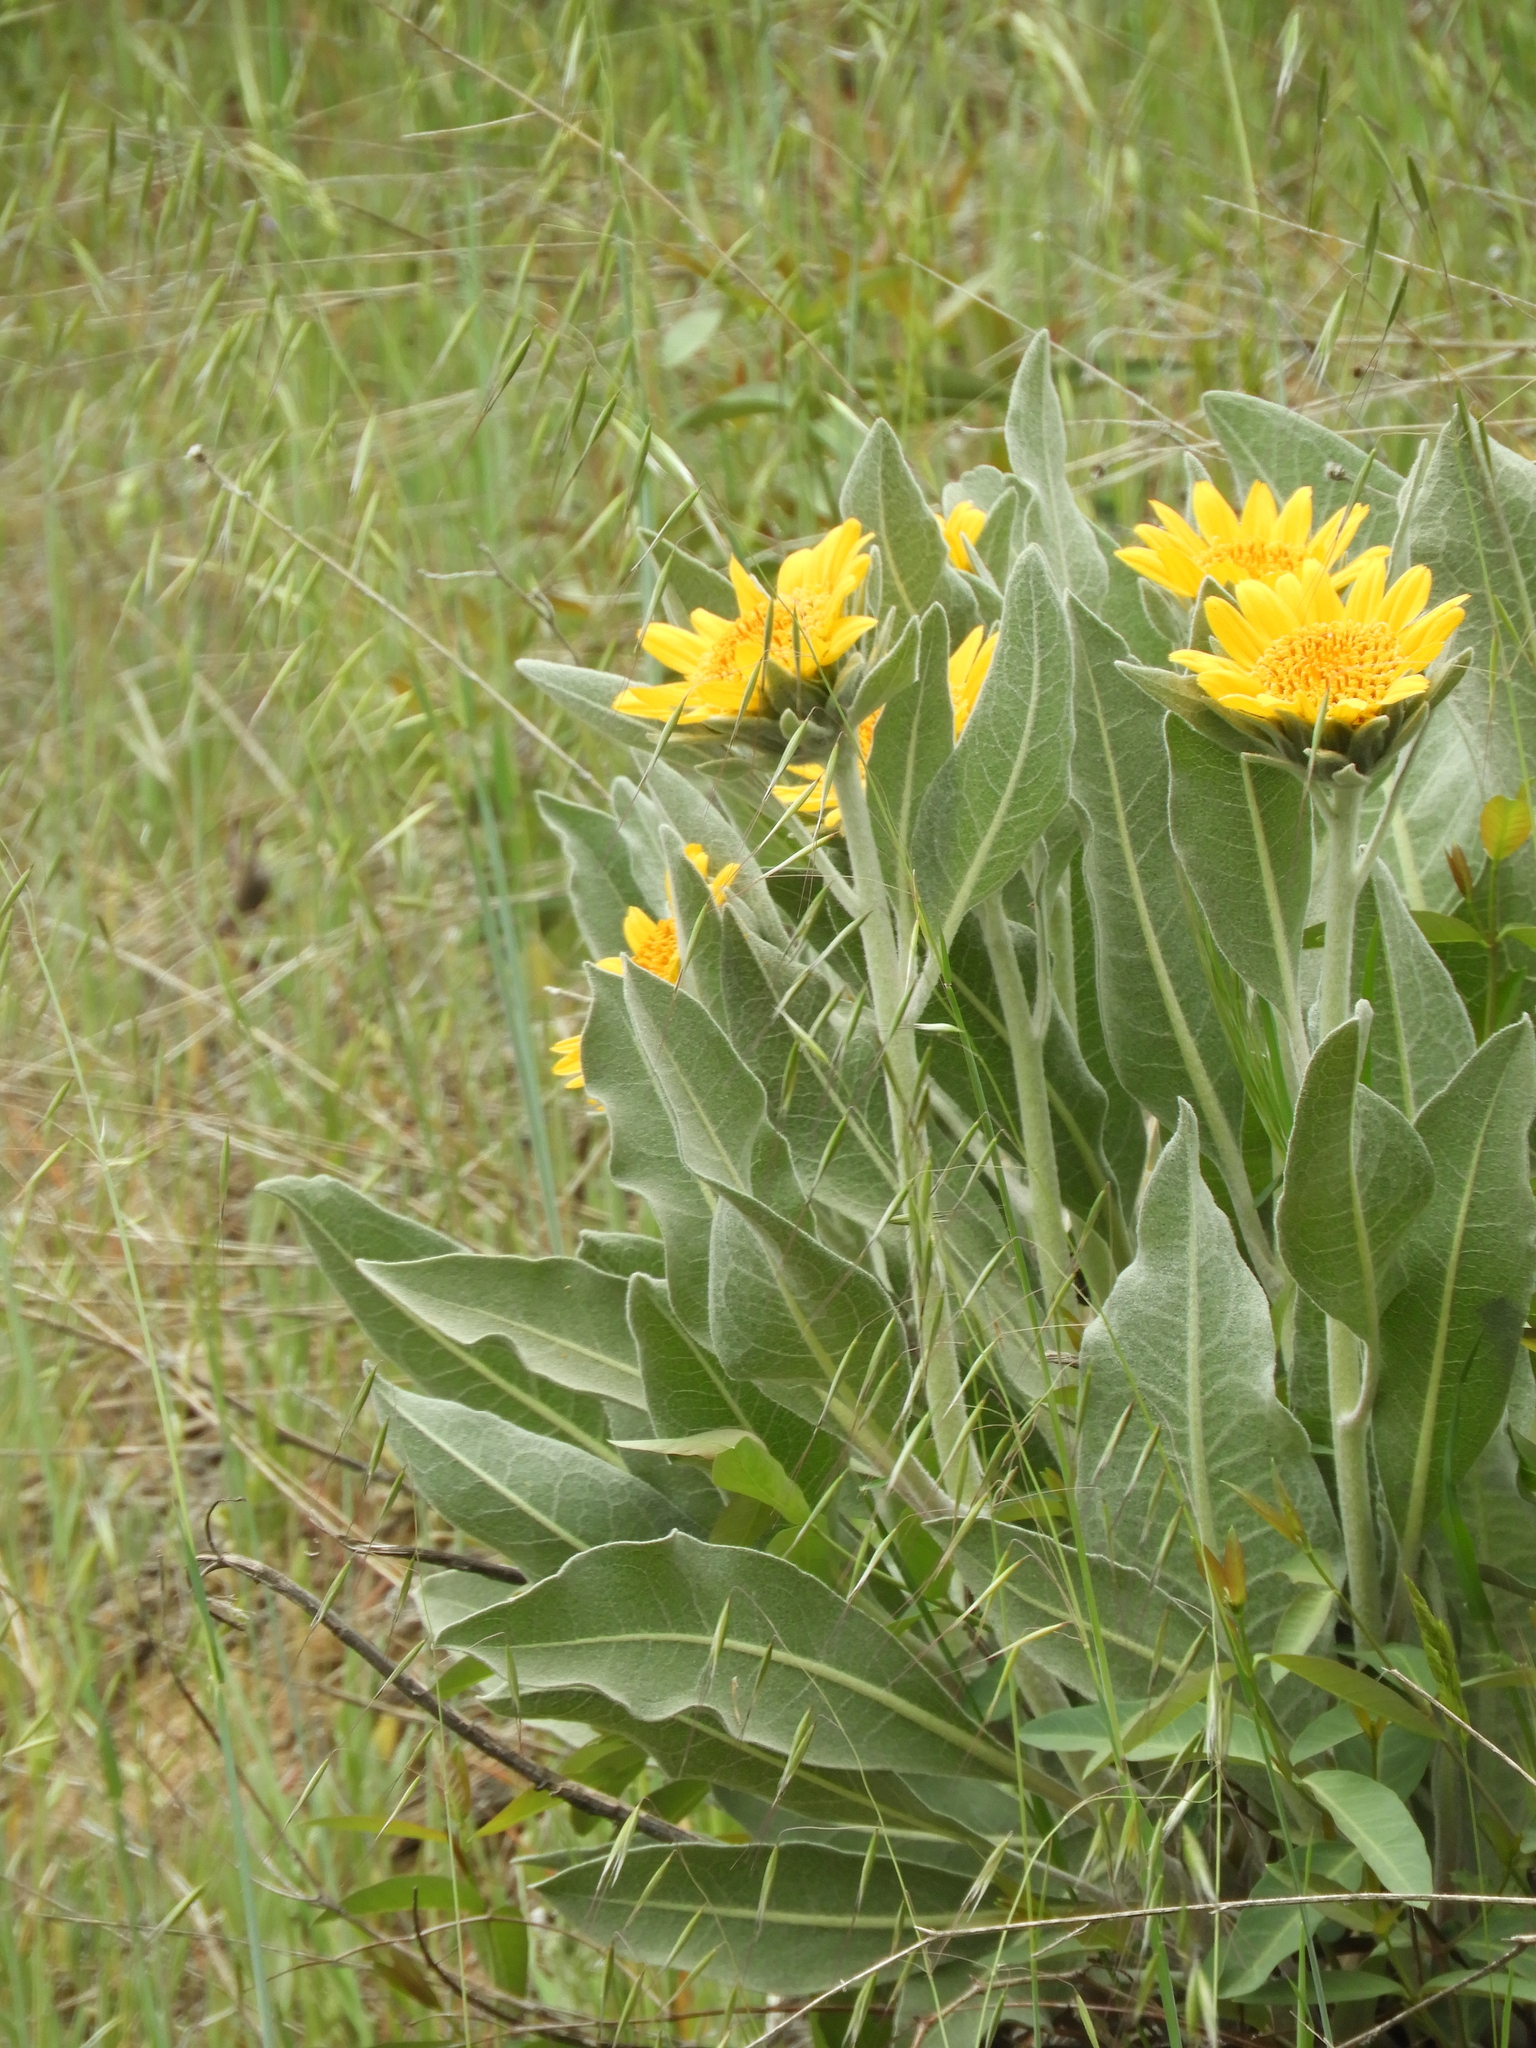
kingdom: Plantae
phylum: Tracheophyta
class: Magnoliopsida
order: Asterales
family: Asteraceae
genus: Wyethia
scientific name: Wyethia helenioides
